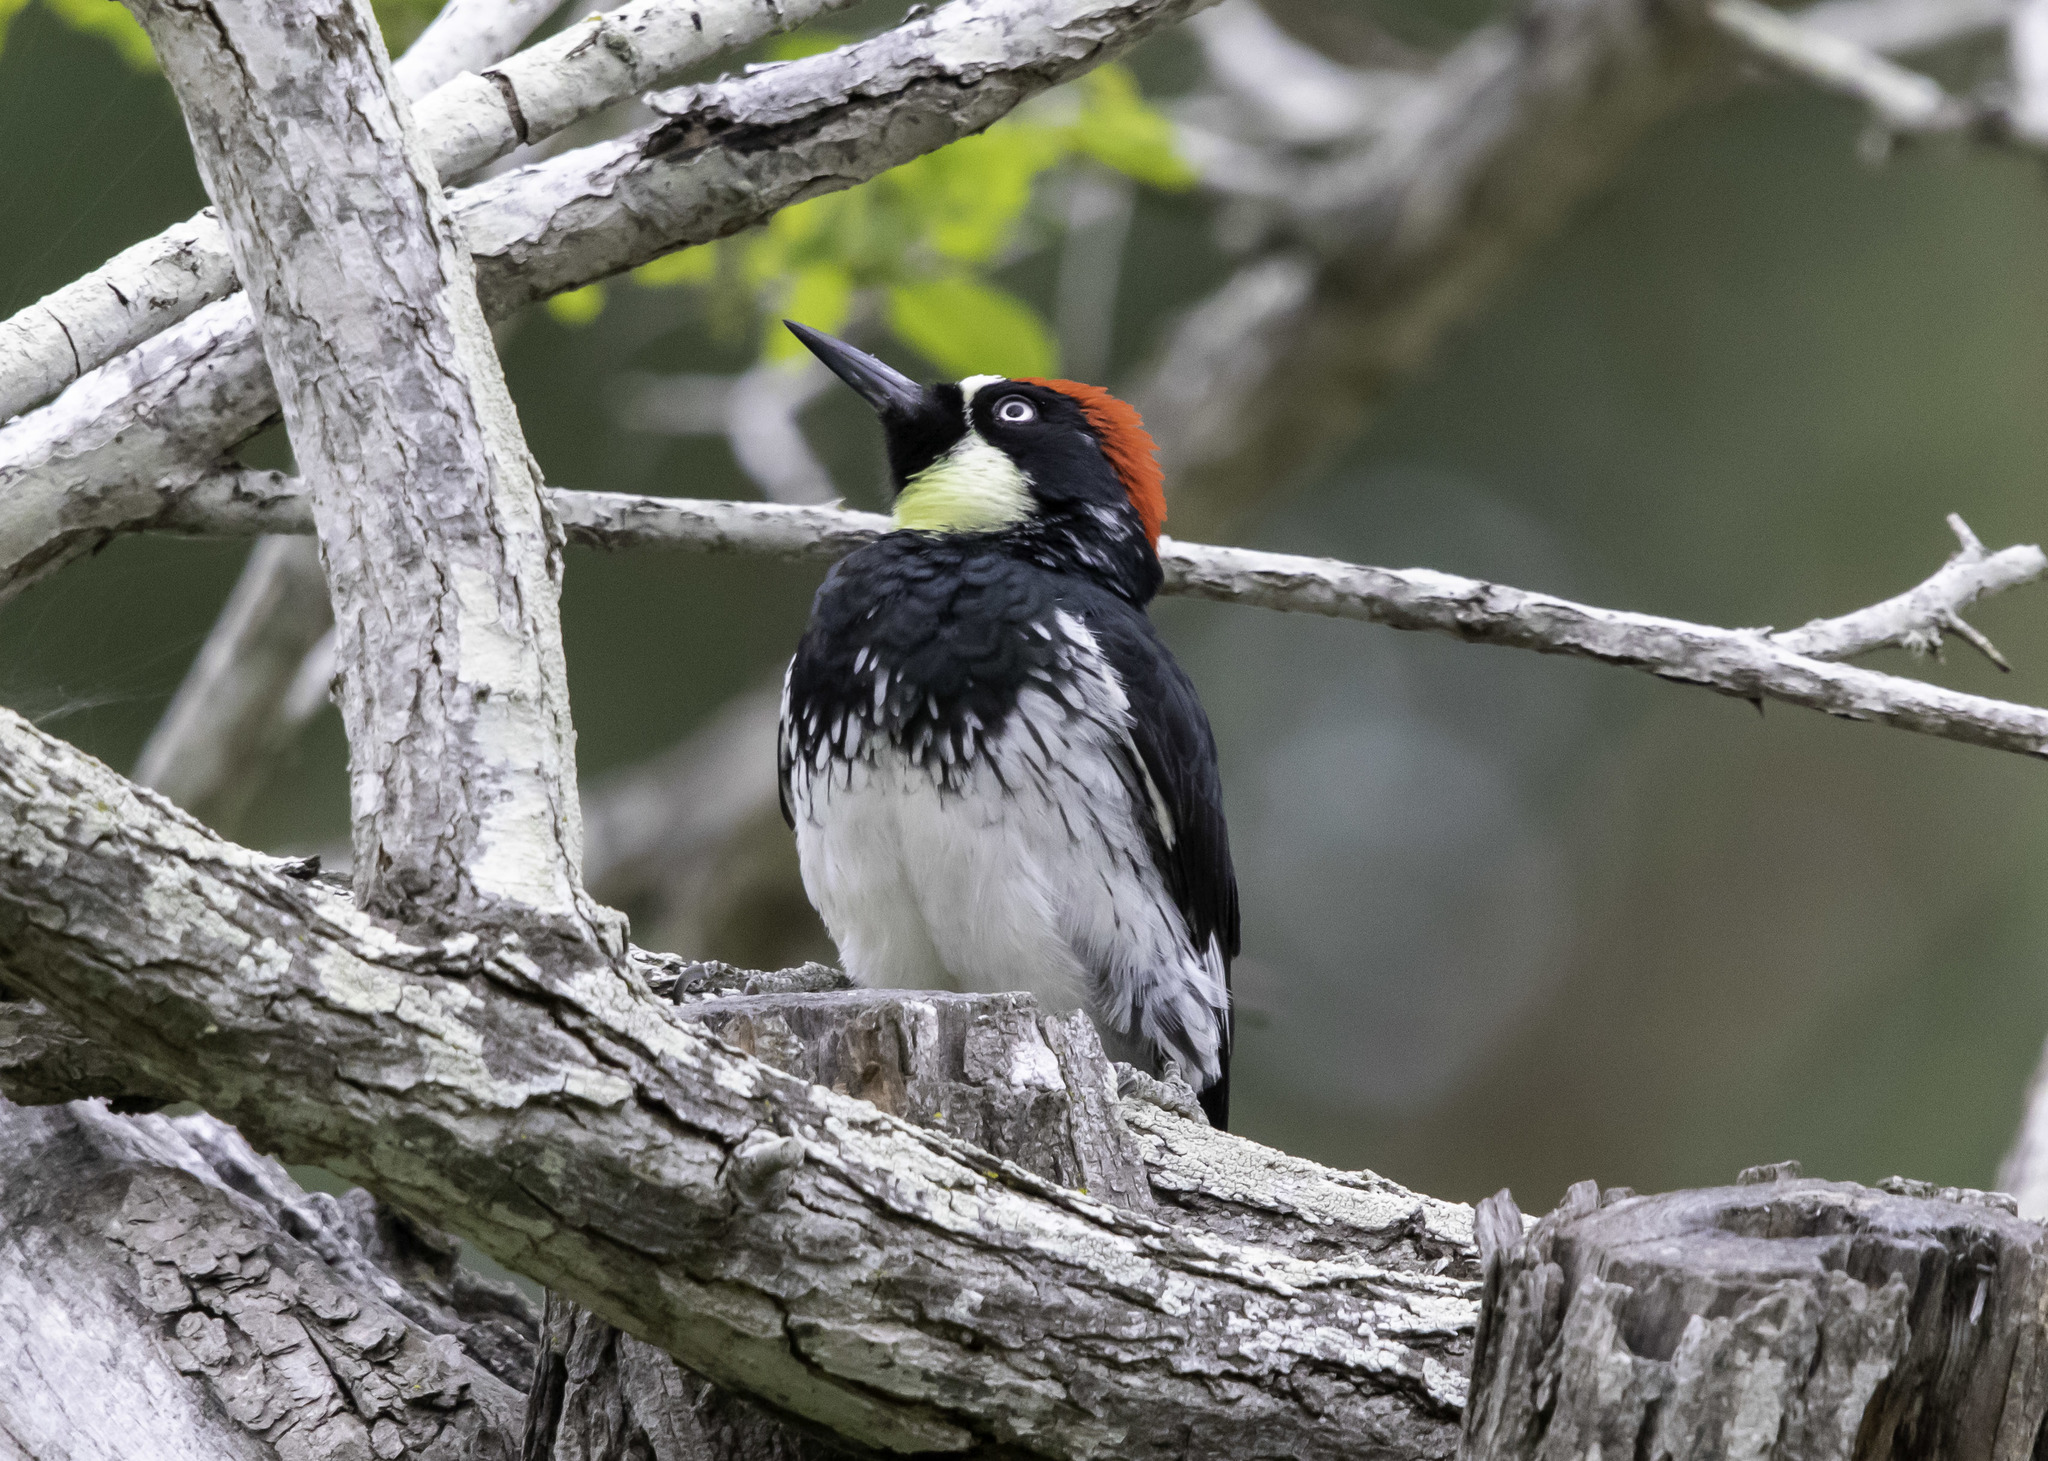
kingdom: Animalia
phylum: Chordata
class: Aves
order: Piciformes
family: Picidae
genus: Melanerpes
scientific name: Melanerpes formicivorus
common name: Acorn woodpecker
